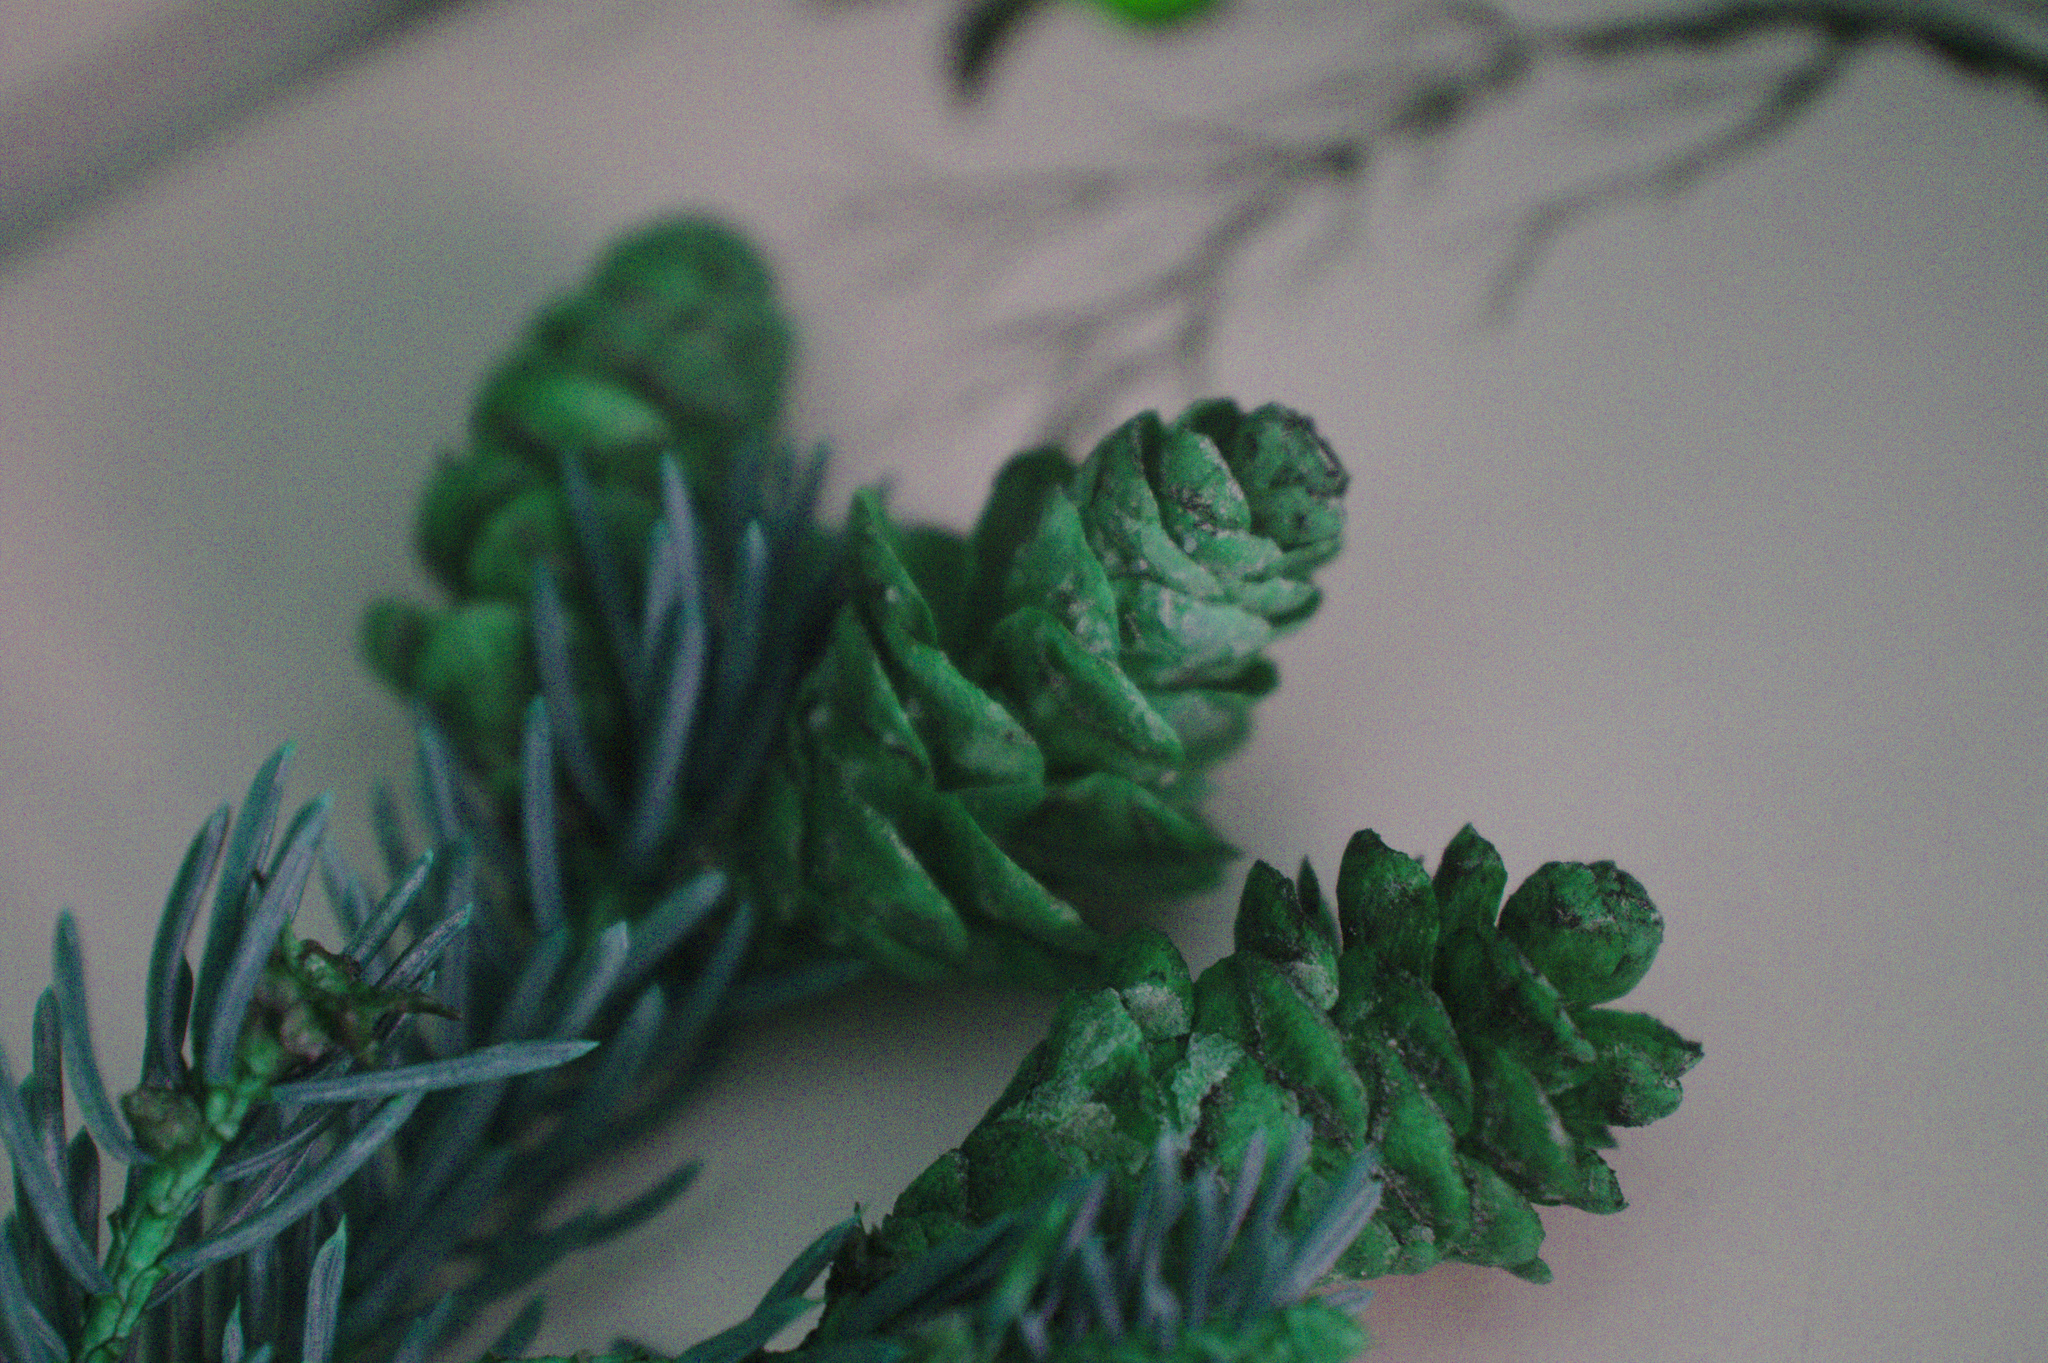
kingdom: Plantae
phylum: Tracheophyta
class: Pinopsida
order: Pinales
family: Pinaceae
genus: Picea
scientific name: Picea glauca
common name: White spruce
